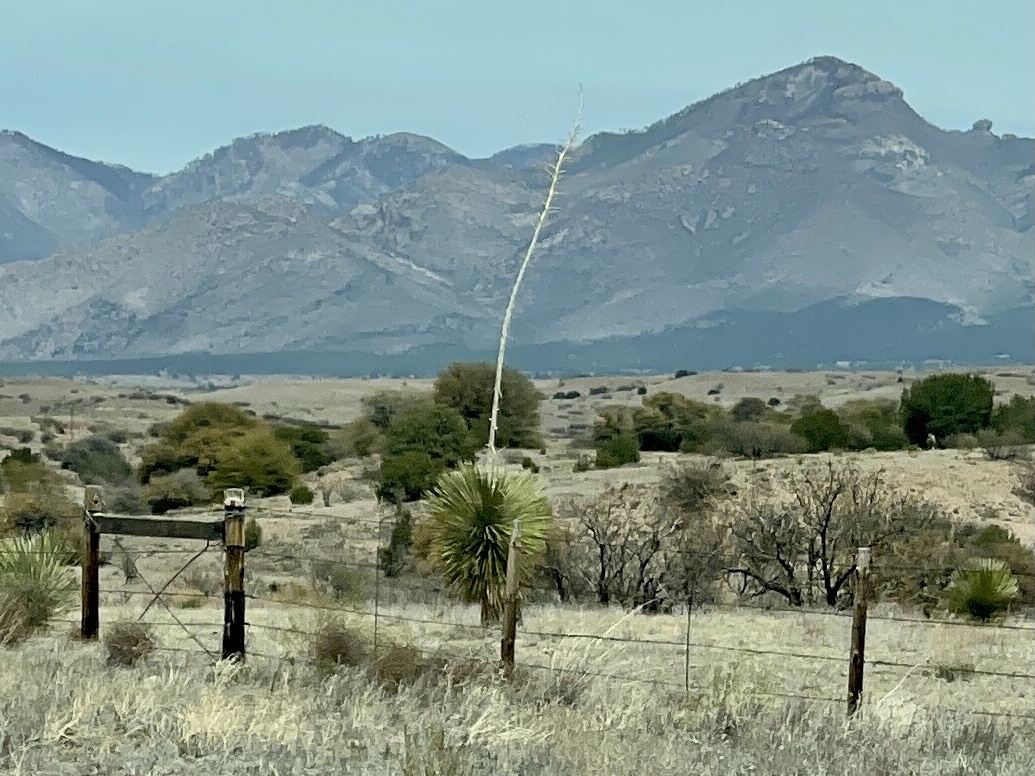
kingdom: Plantae
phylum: Tracheophyta
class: Liliopsida
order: Asparagales
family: Asparagaceae
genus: Yucca
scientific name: Yucca elata
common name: Palmella
